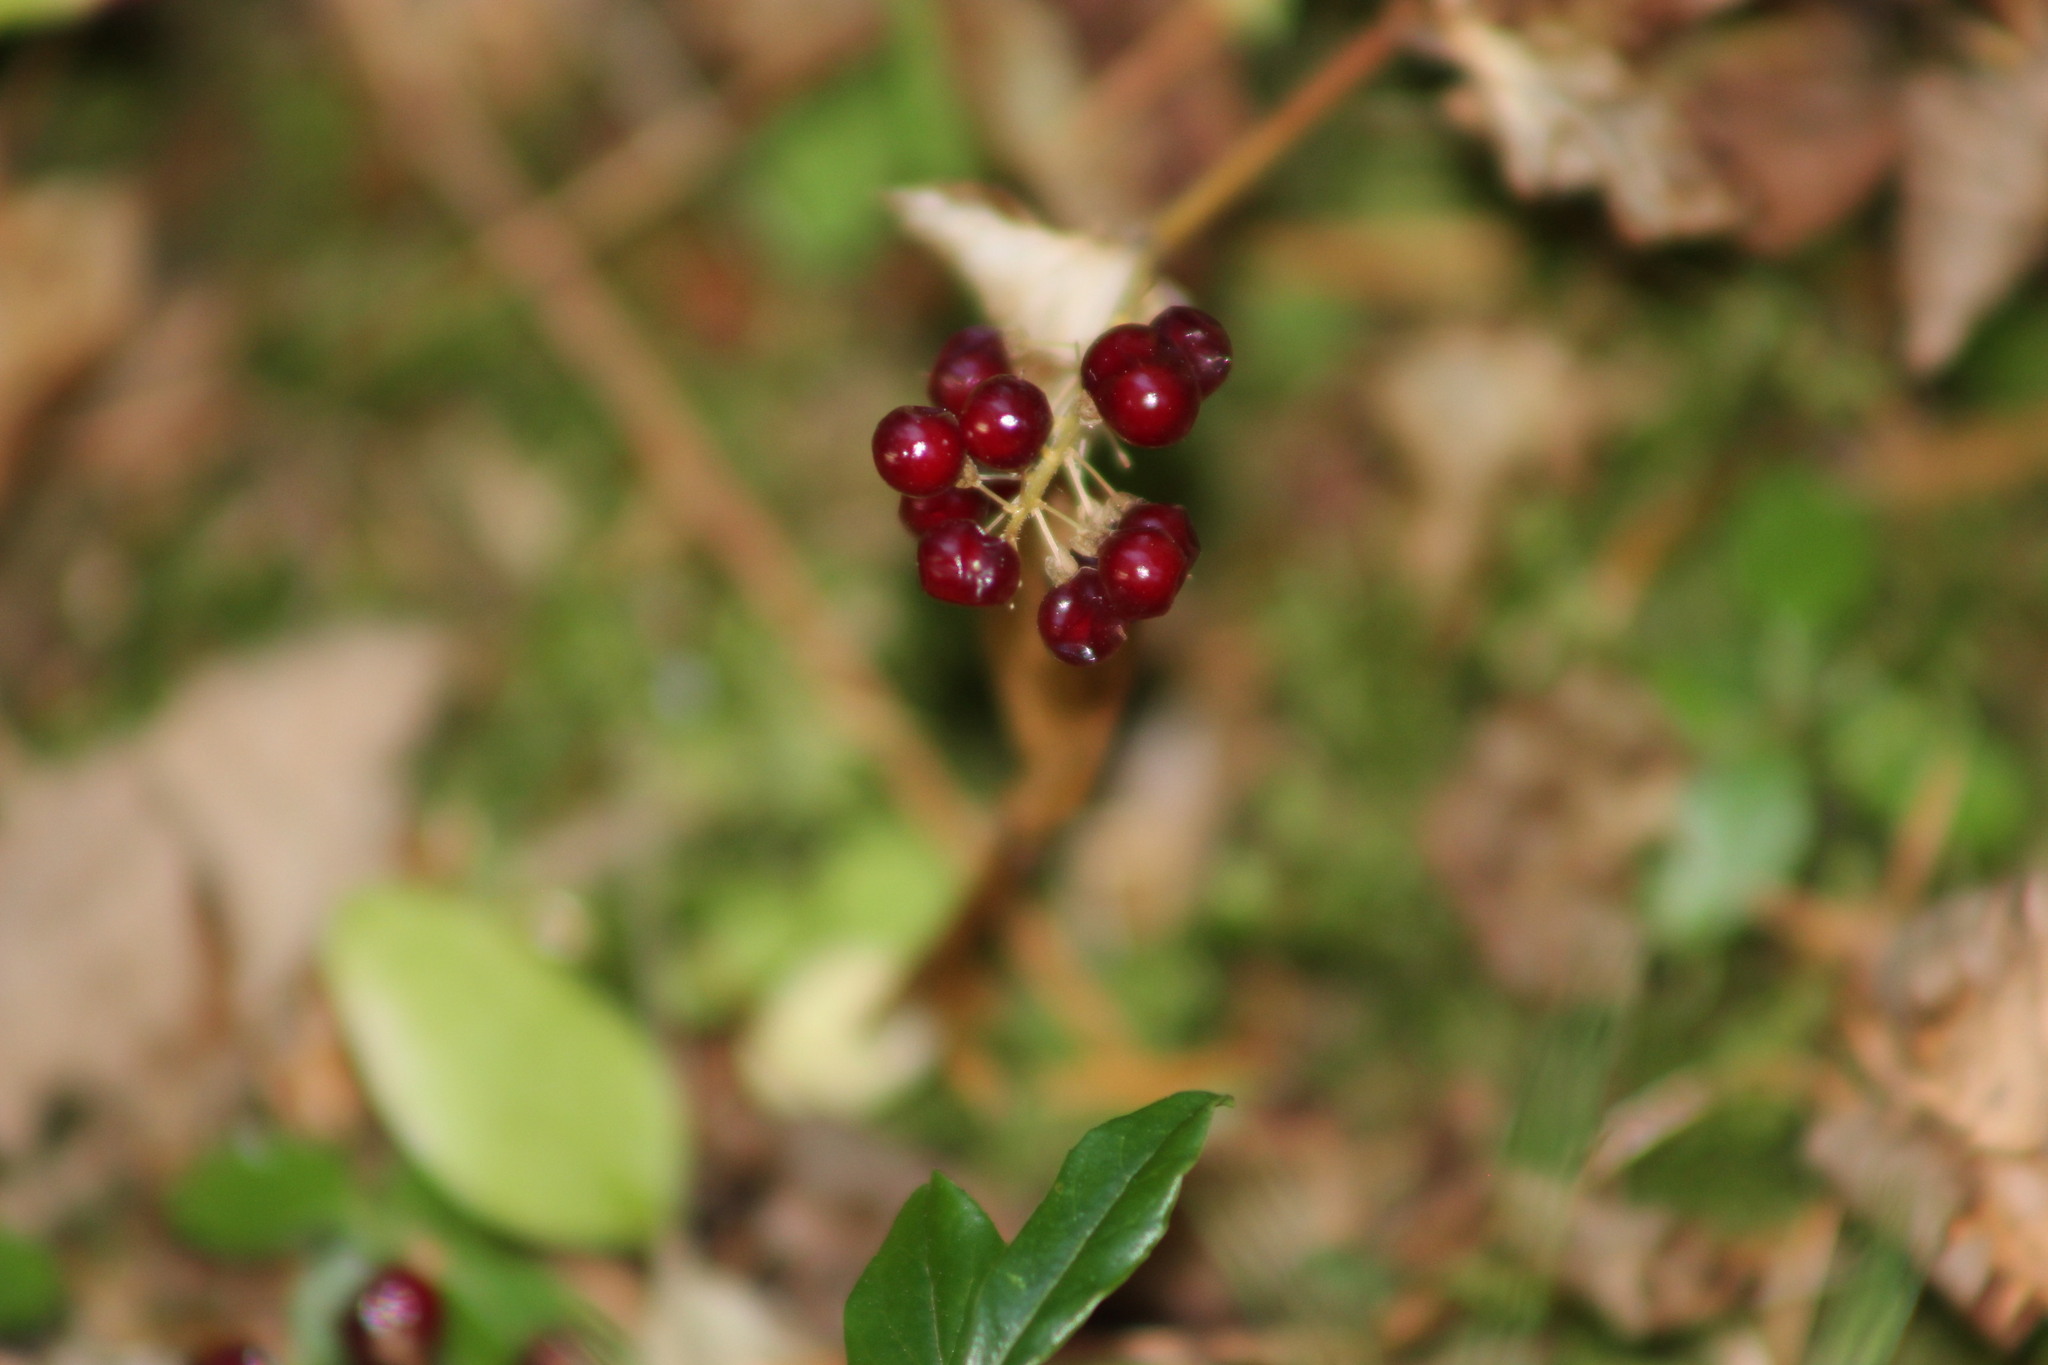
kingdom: Plantae
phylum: Tracheophyta
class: Liliopsida
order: Asparagales
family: Asparagaceae
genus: Maianthemum
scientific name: Maianthemum bifolium
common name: May lily
